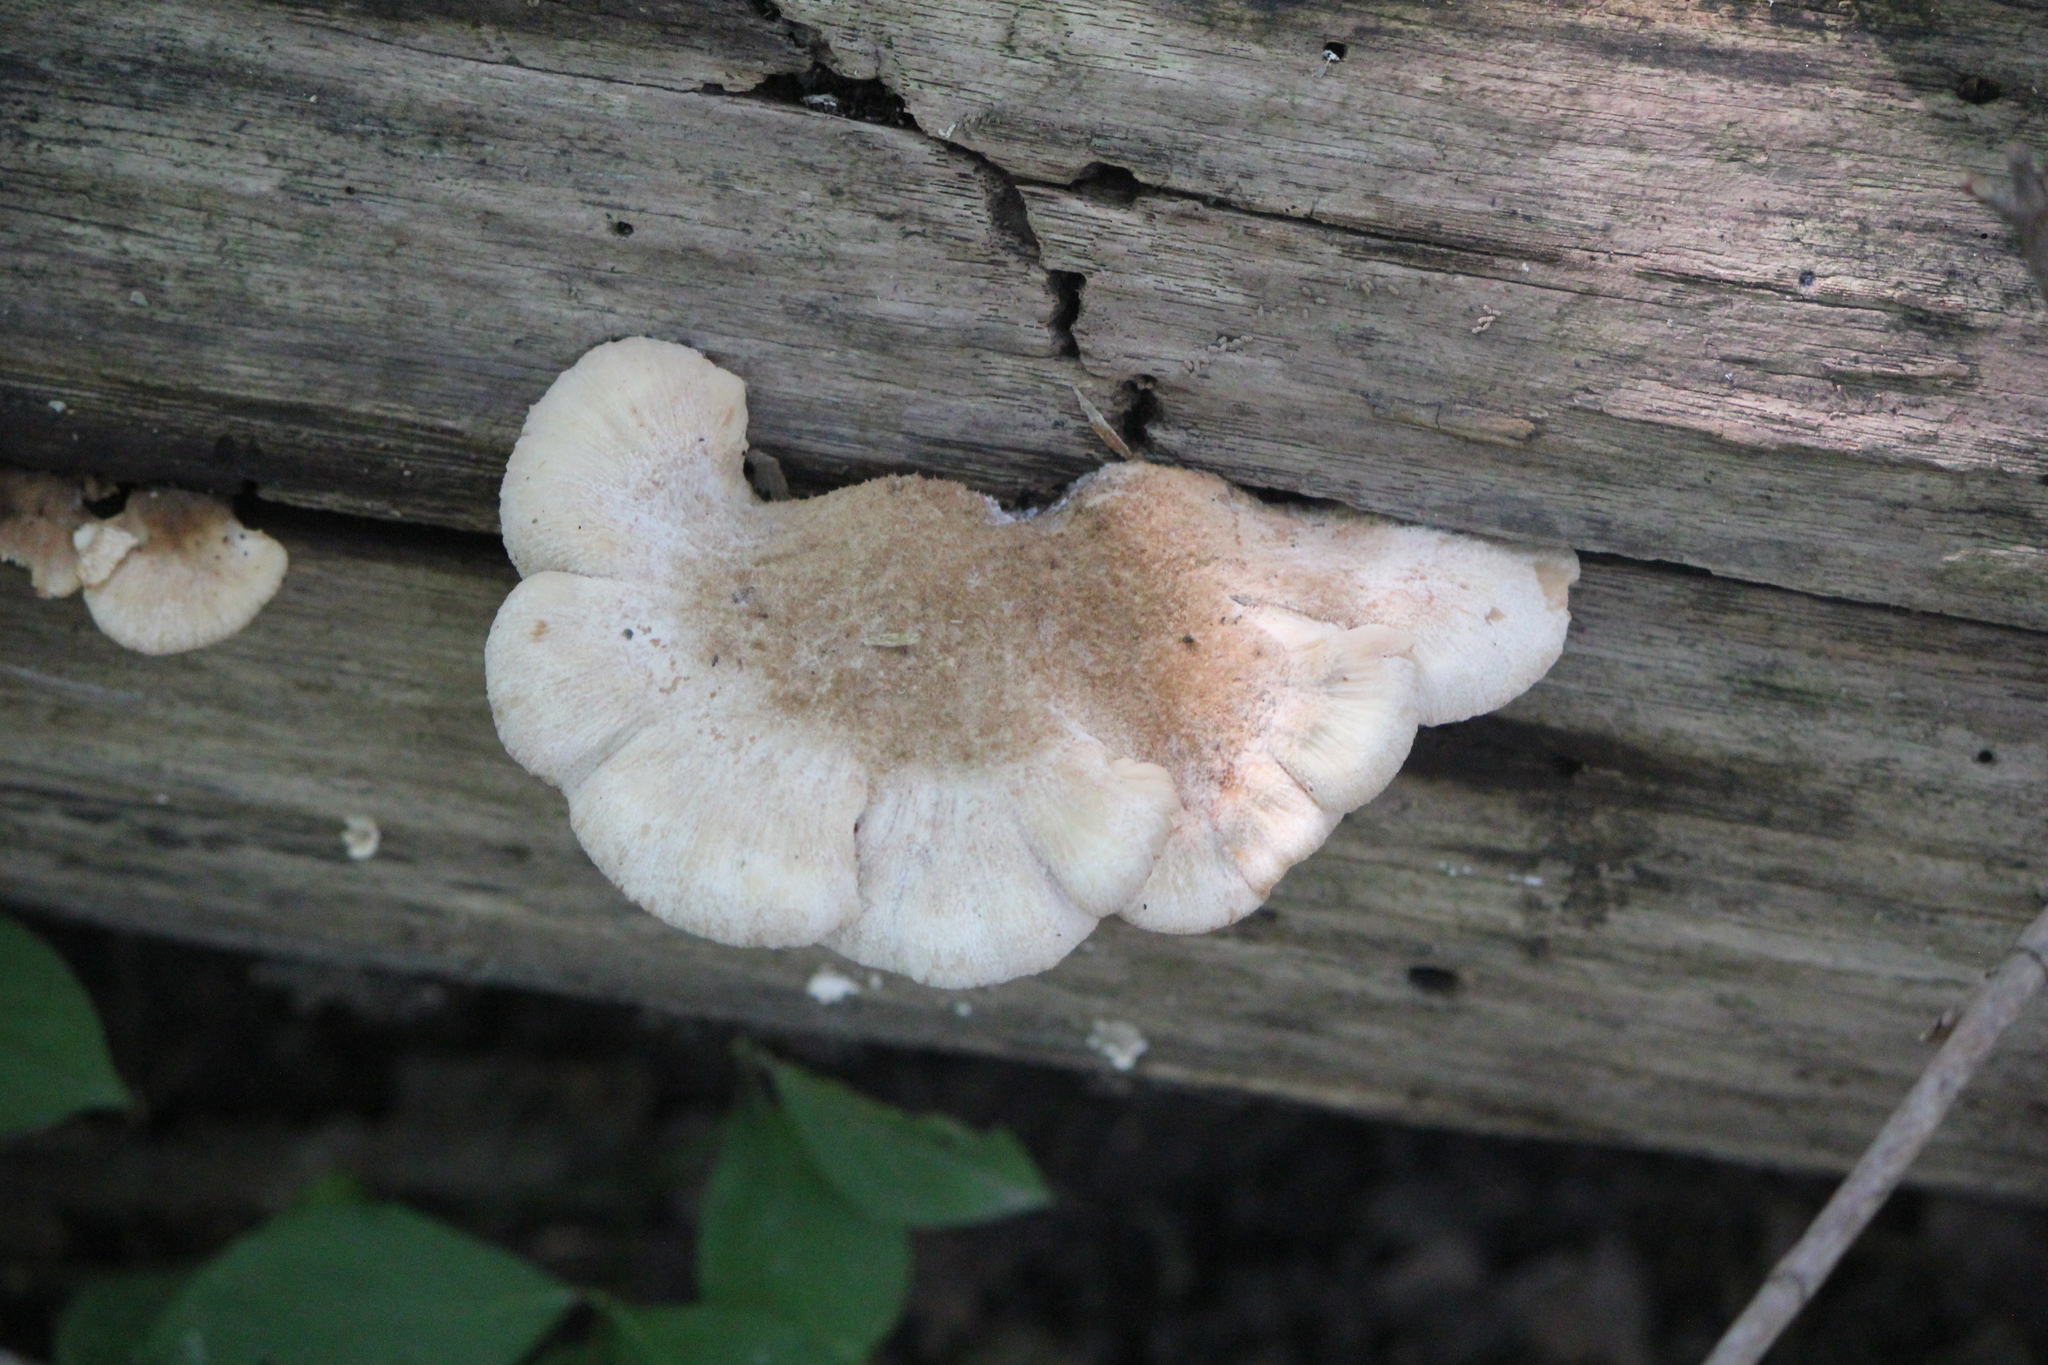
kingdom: Fungi
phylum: Basidiomycota
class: Agaricomycetes
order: Russulales
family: Auriscalpiaceae
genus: Lentinellus
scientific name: Lentinellus ursinus
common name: Bear lentinus
